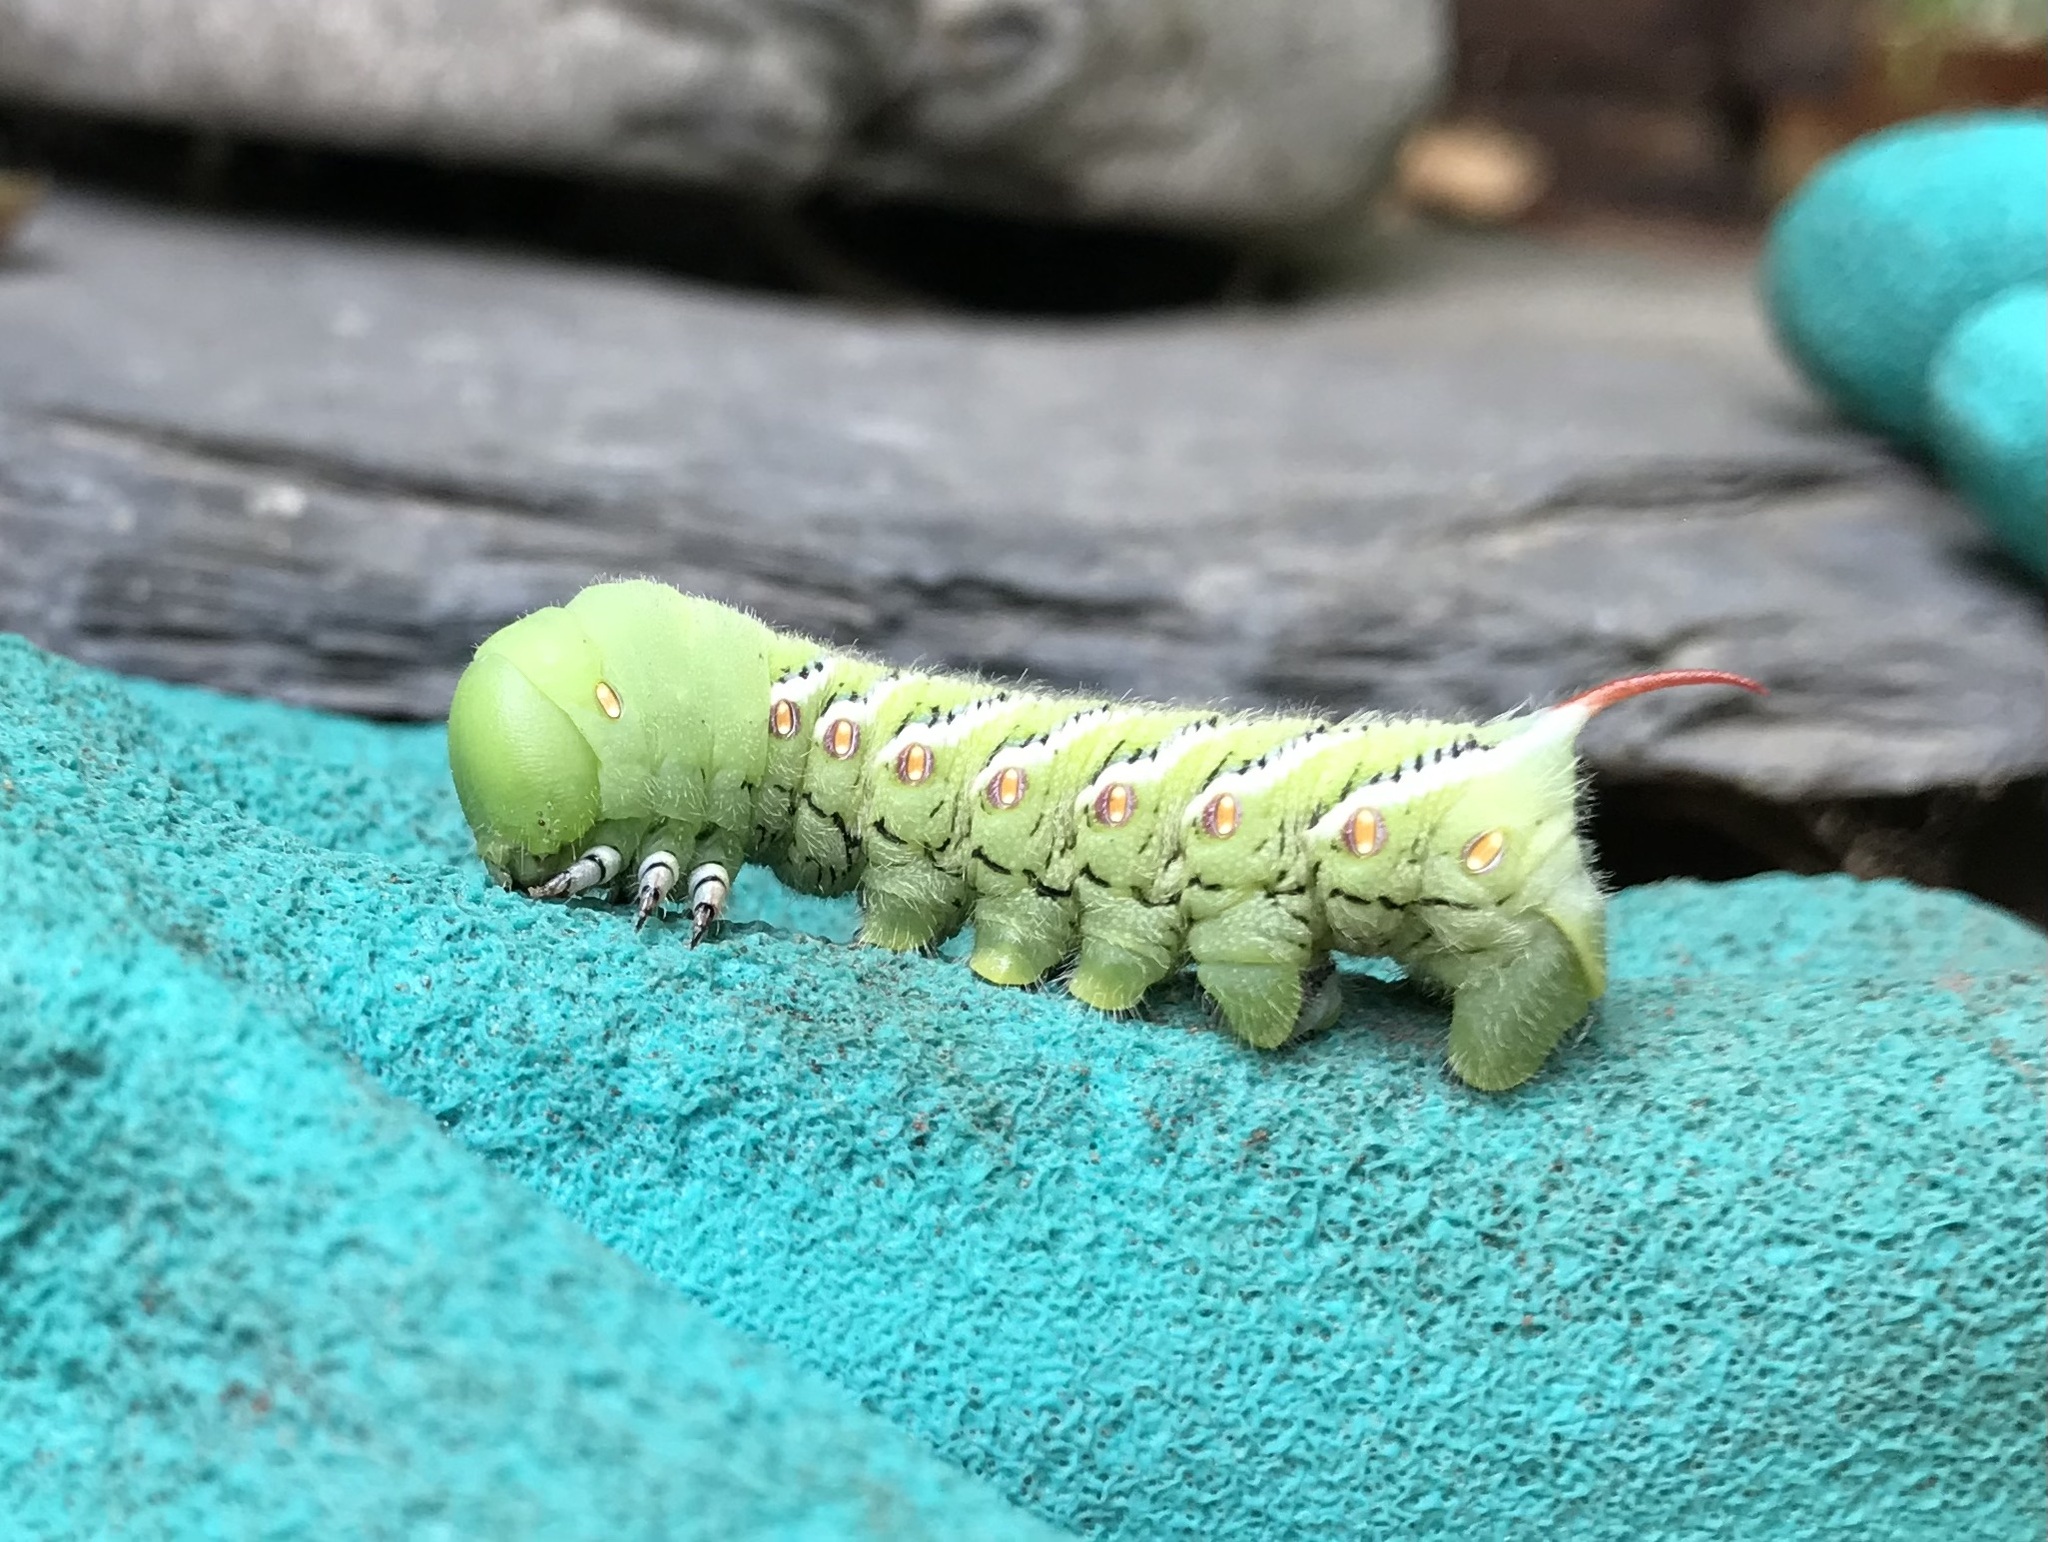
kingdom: Animalia
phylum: Arthropoda
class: Insecta
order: Lepidoptera
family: Sphingidae
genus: Manduca
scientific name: Manduca sexta
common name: Carolina sphinx
